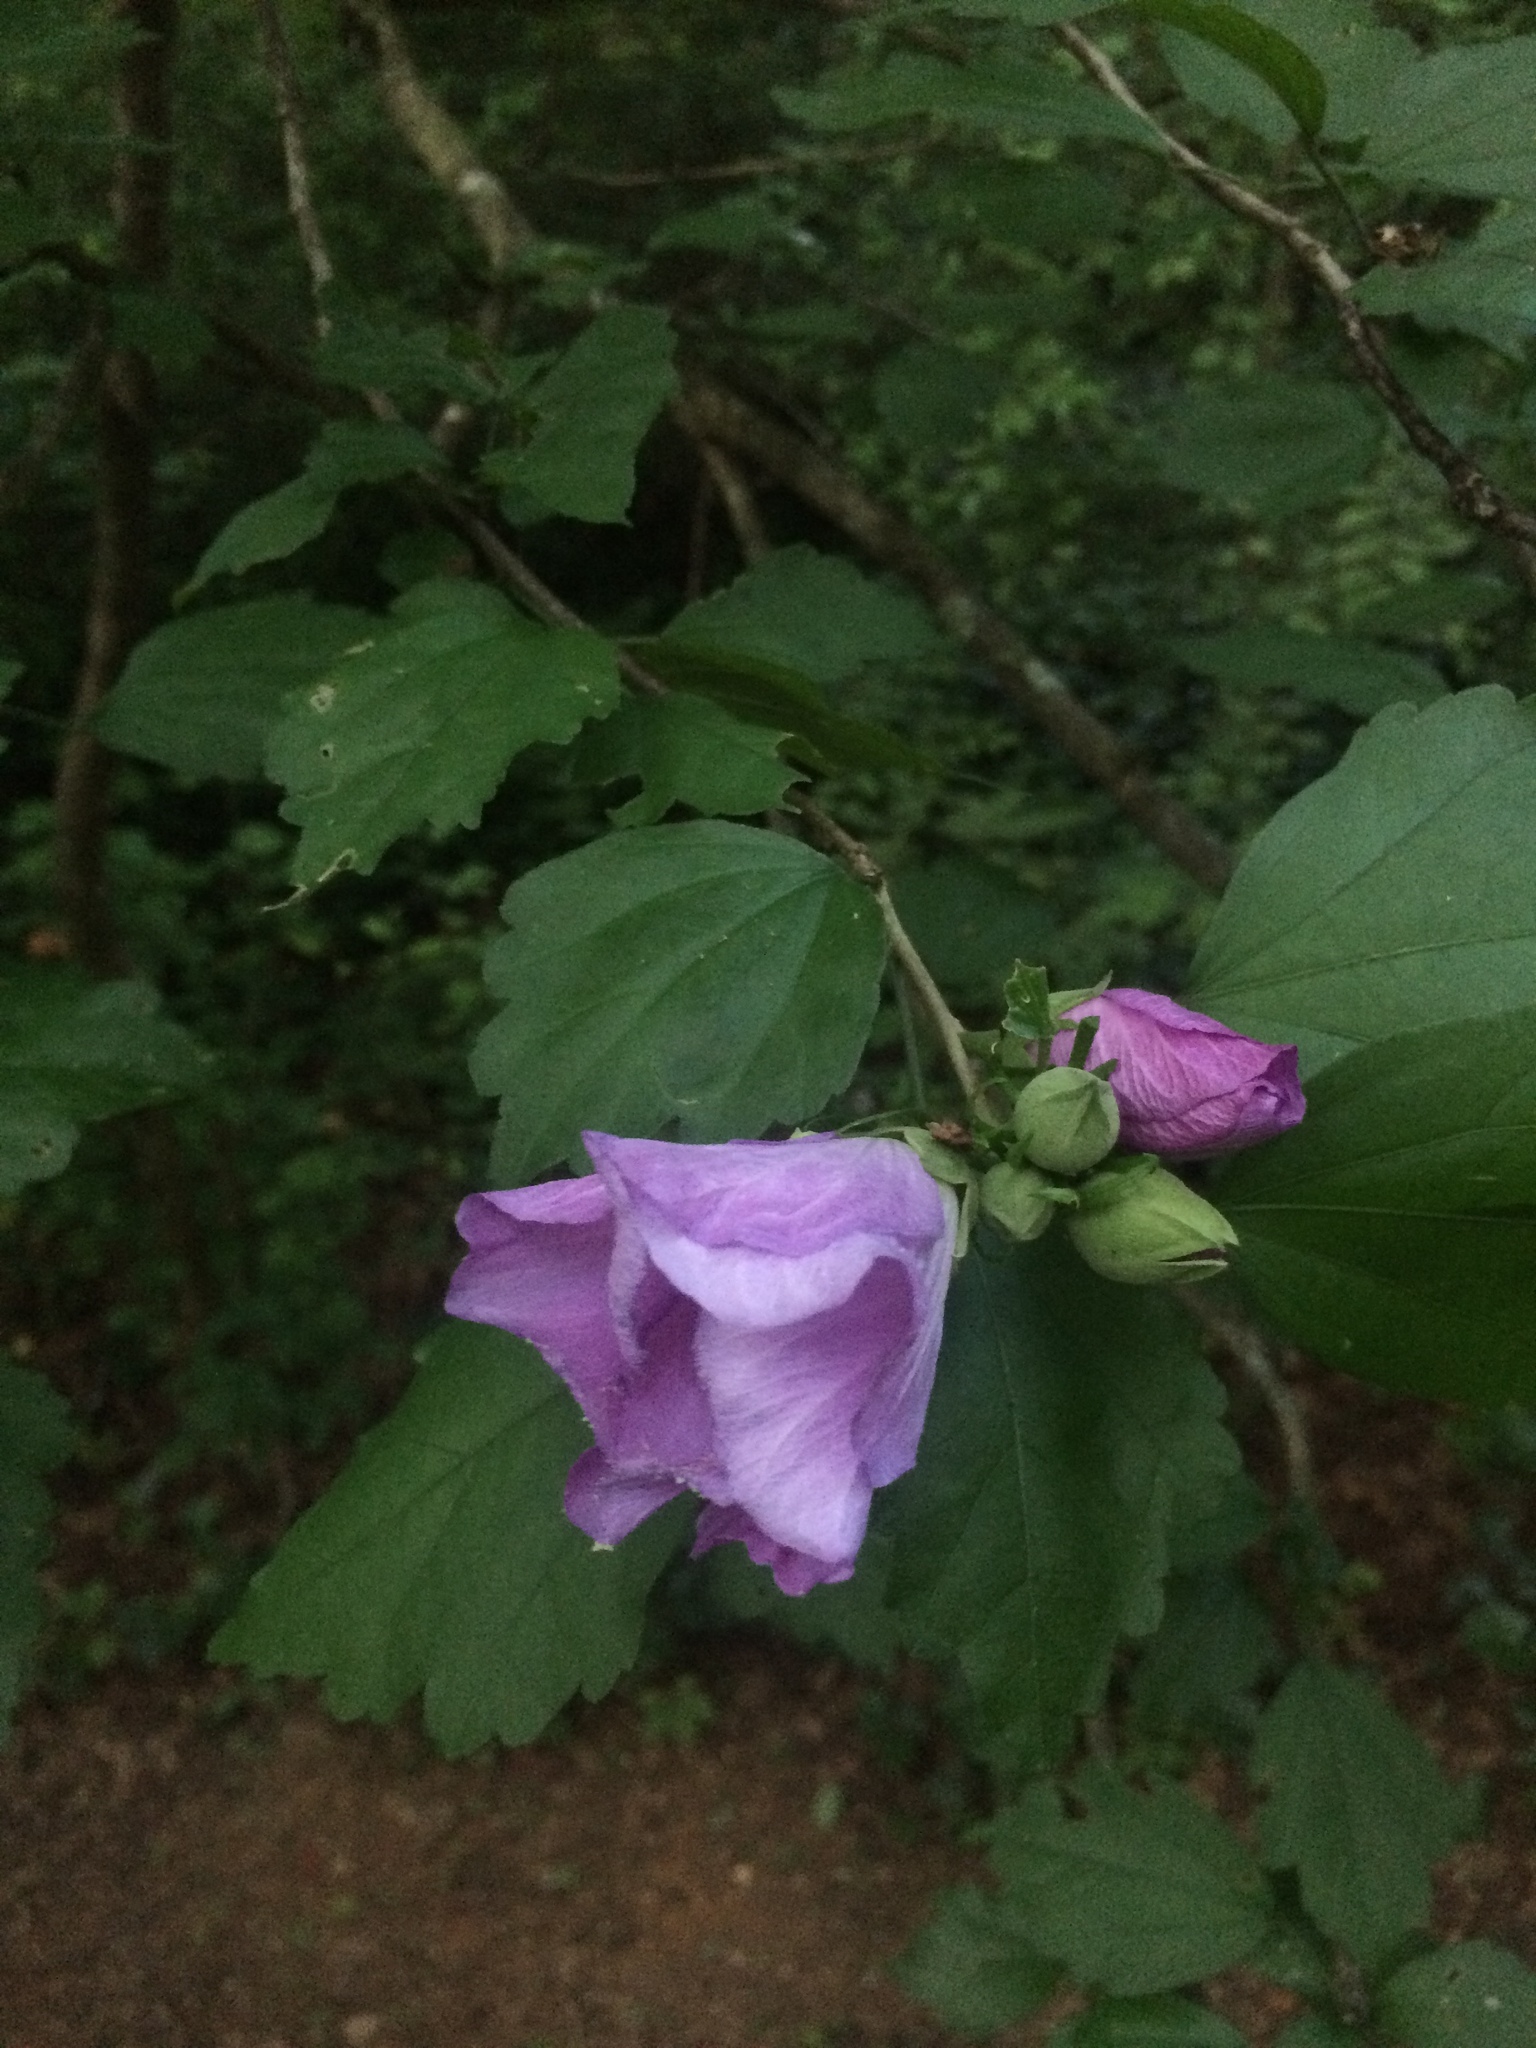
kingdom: Plantae
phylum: Tracheophyta
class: Magnoliopsida
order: Malvales
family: Malvaceae
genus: Hibiscus
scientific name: Hibiscus syriacus
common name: Syrian ketmia
